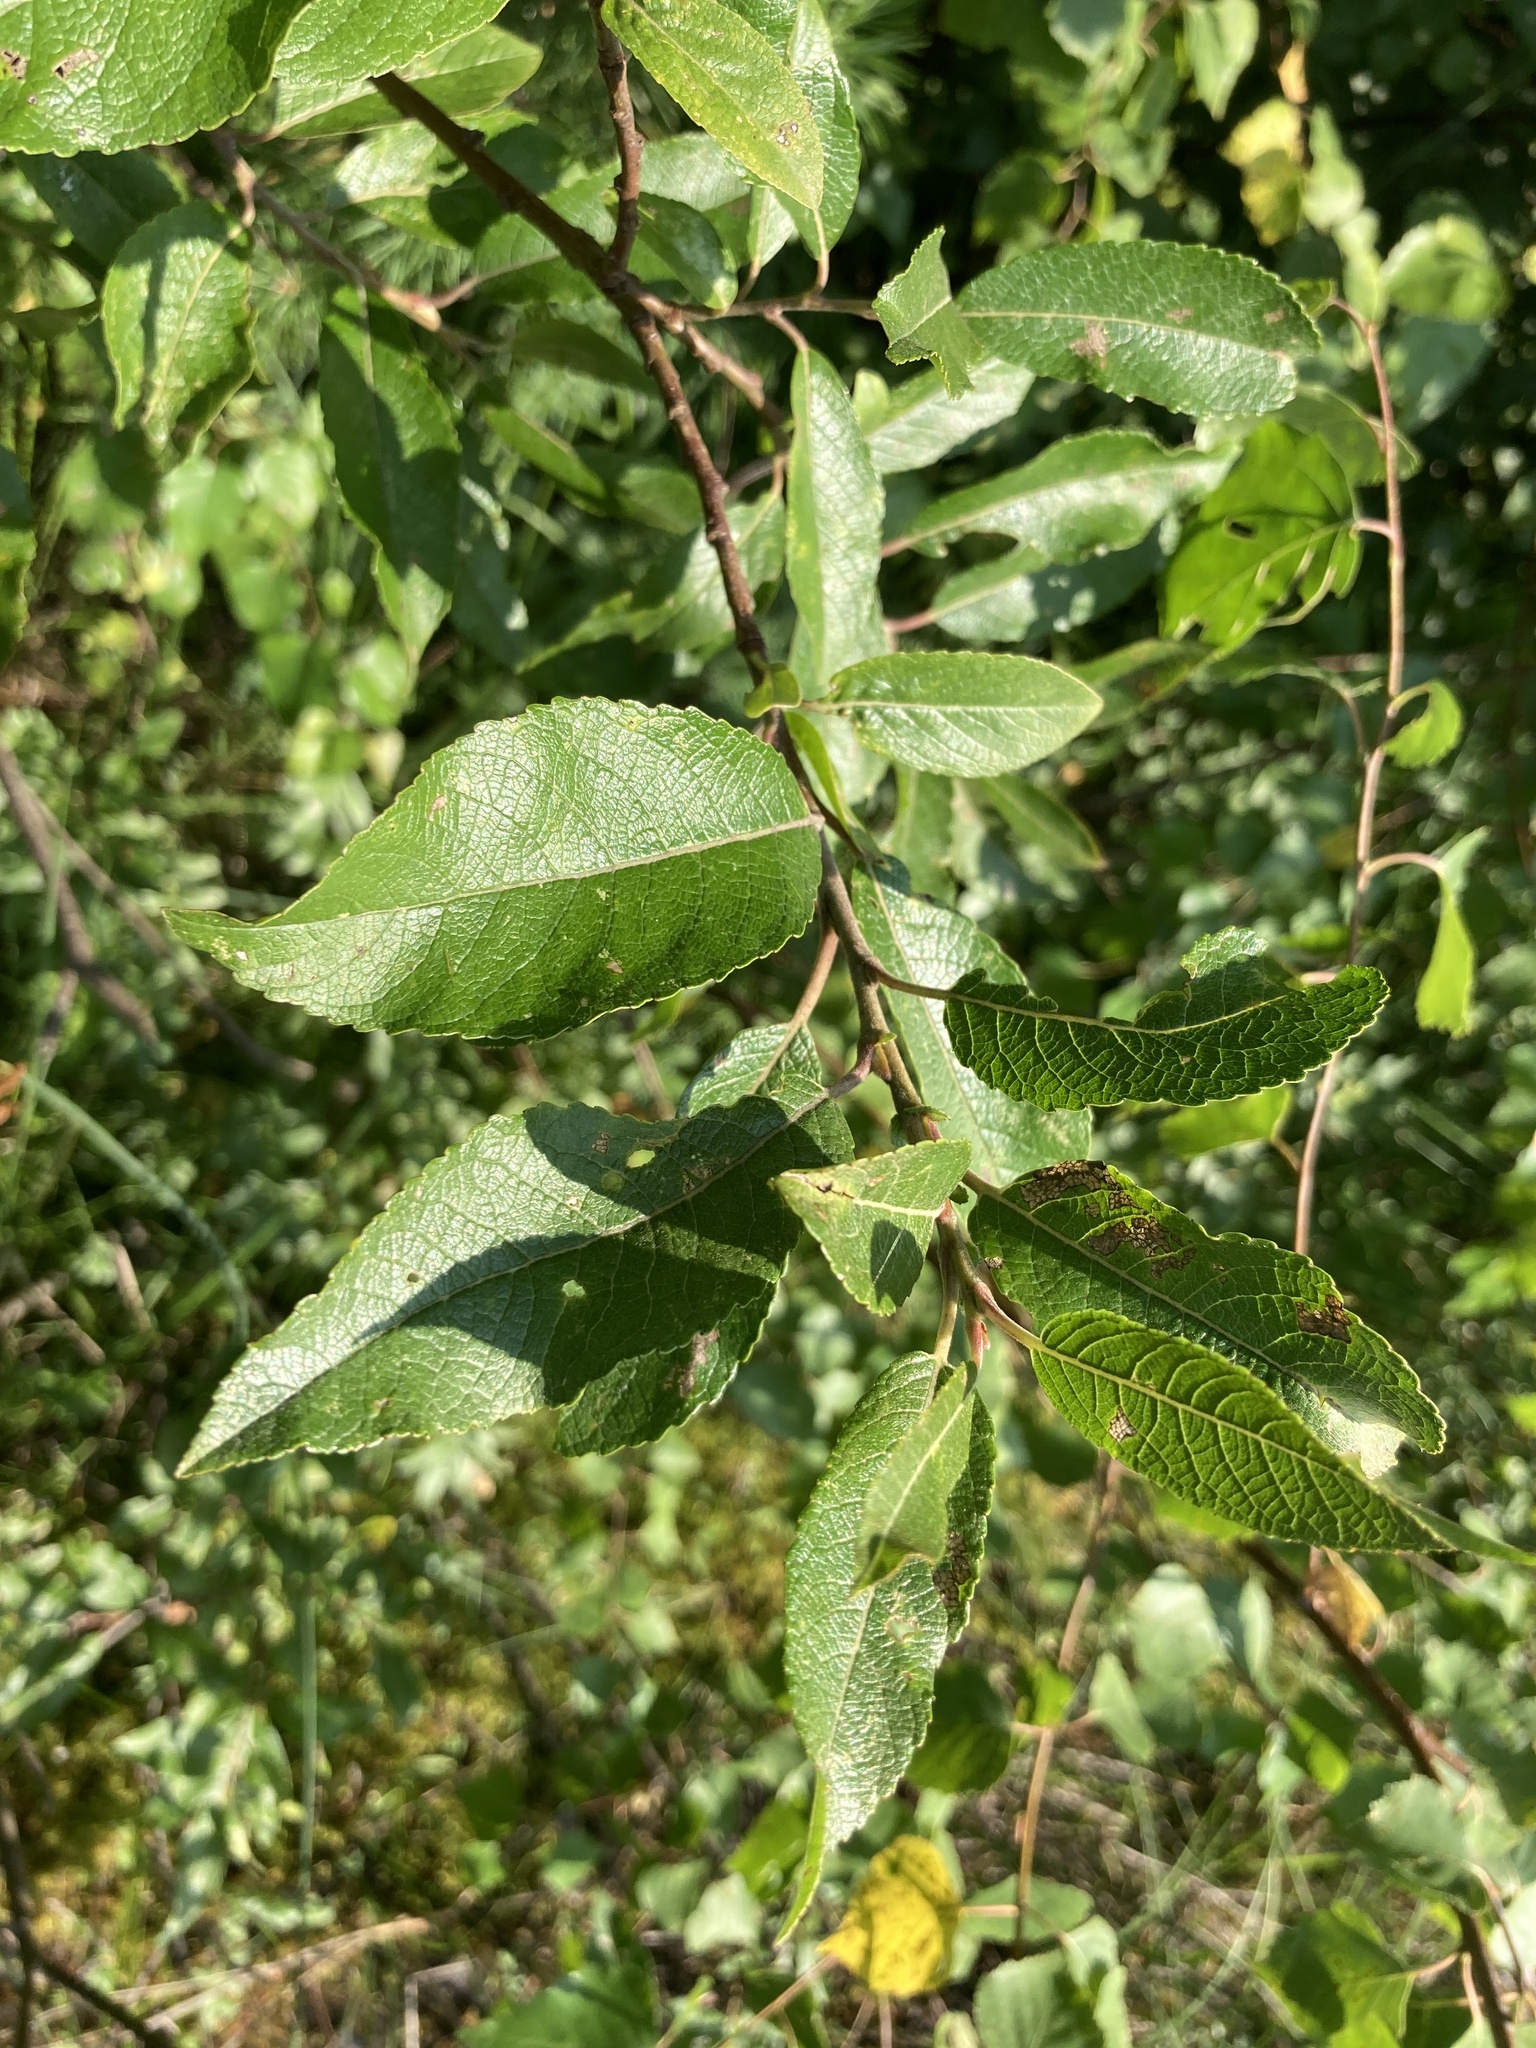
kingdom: Plantae
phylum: Tracheophyta
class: Magnoliopsida
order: Malpighiales
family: Salicaceae
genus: Salix
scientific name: Salix myrsinifolia
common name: Dark-leaved willow
